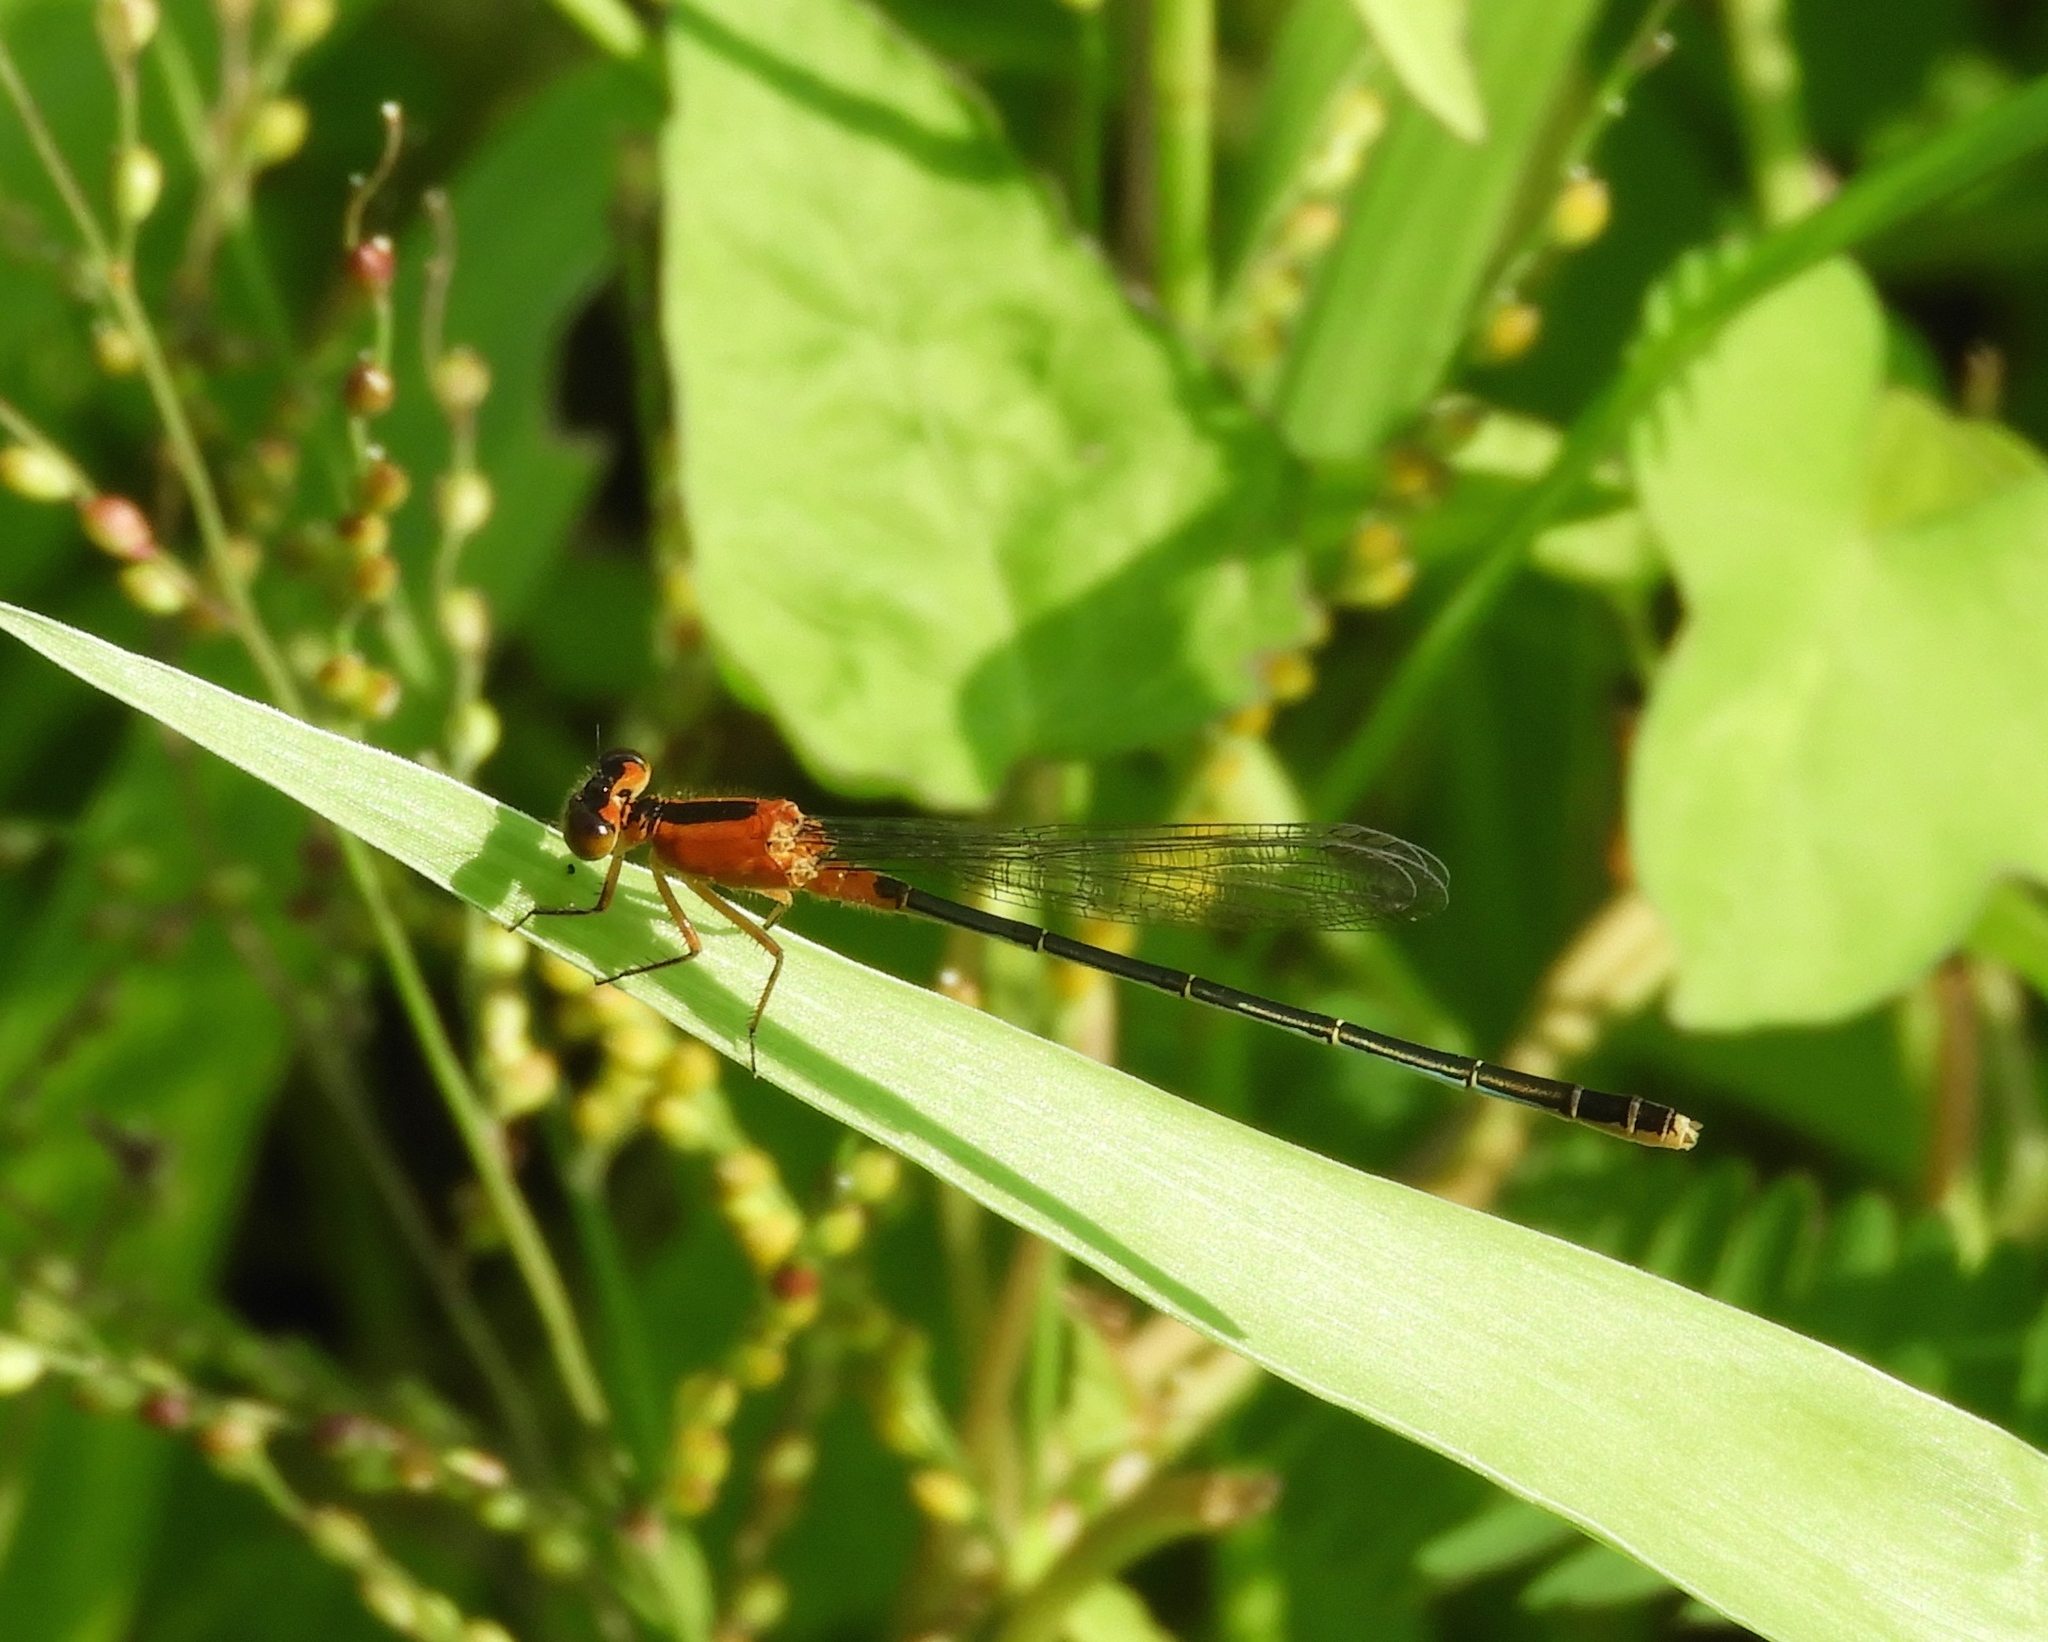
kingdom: Animalia
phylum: Arthropoda
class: Insecta
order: Odonata
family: Coenagrionidae
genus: Ischnura
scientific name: Ischnura ramburii
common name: Rambur's forktail
